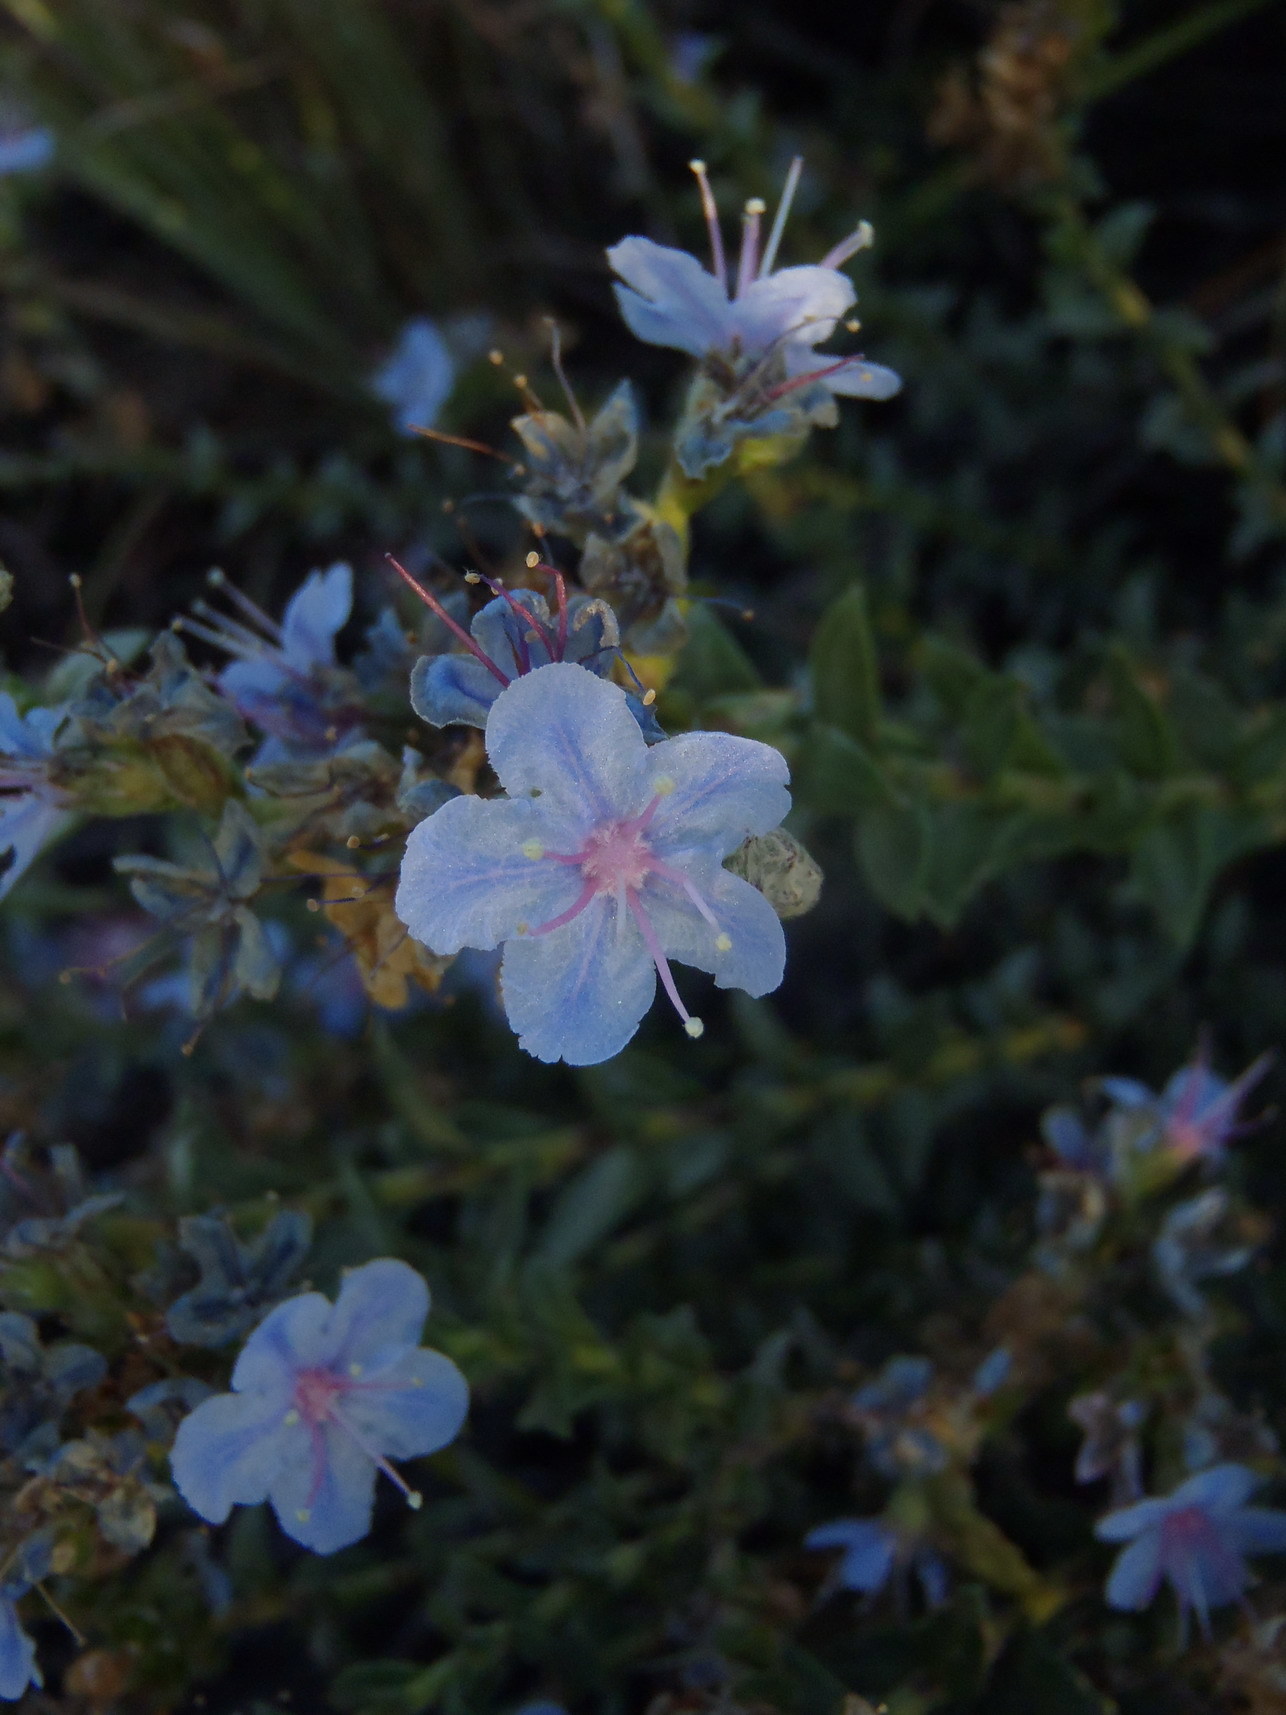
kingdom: Plantae
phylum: Tracheophyta
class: Magnoliopsida
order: Boraginales
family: Boraginaceae
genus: Lobostemon
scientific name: Lobostemon echioides
